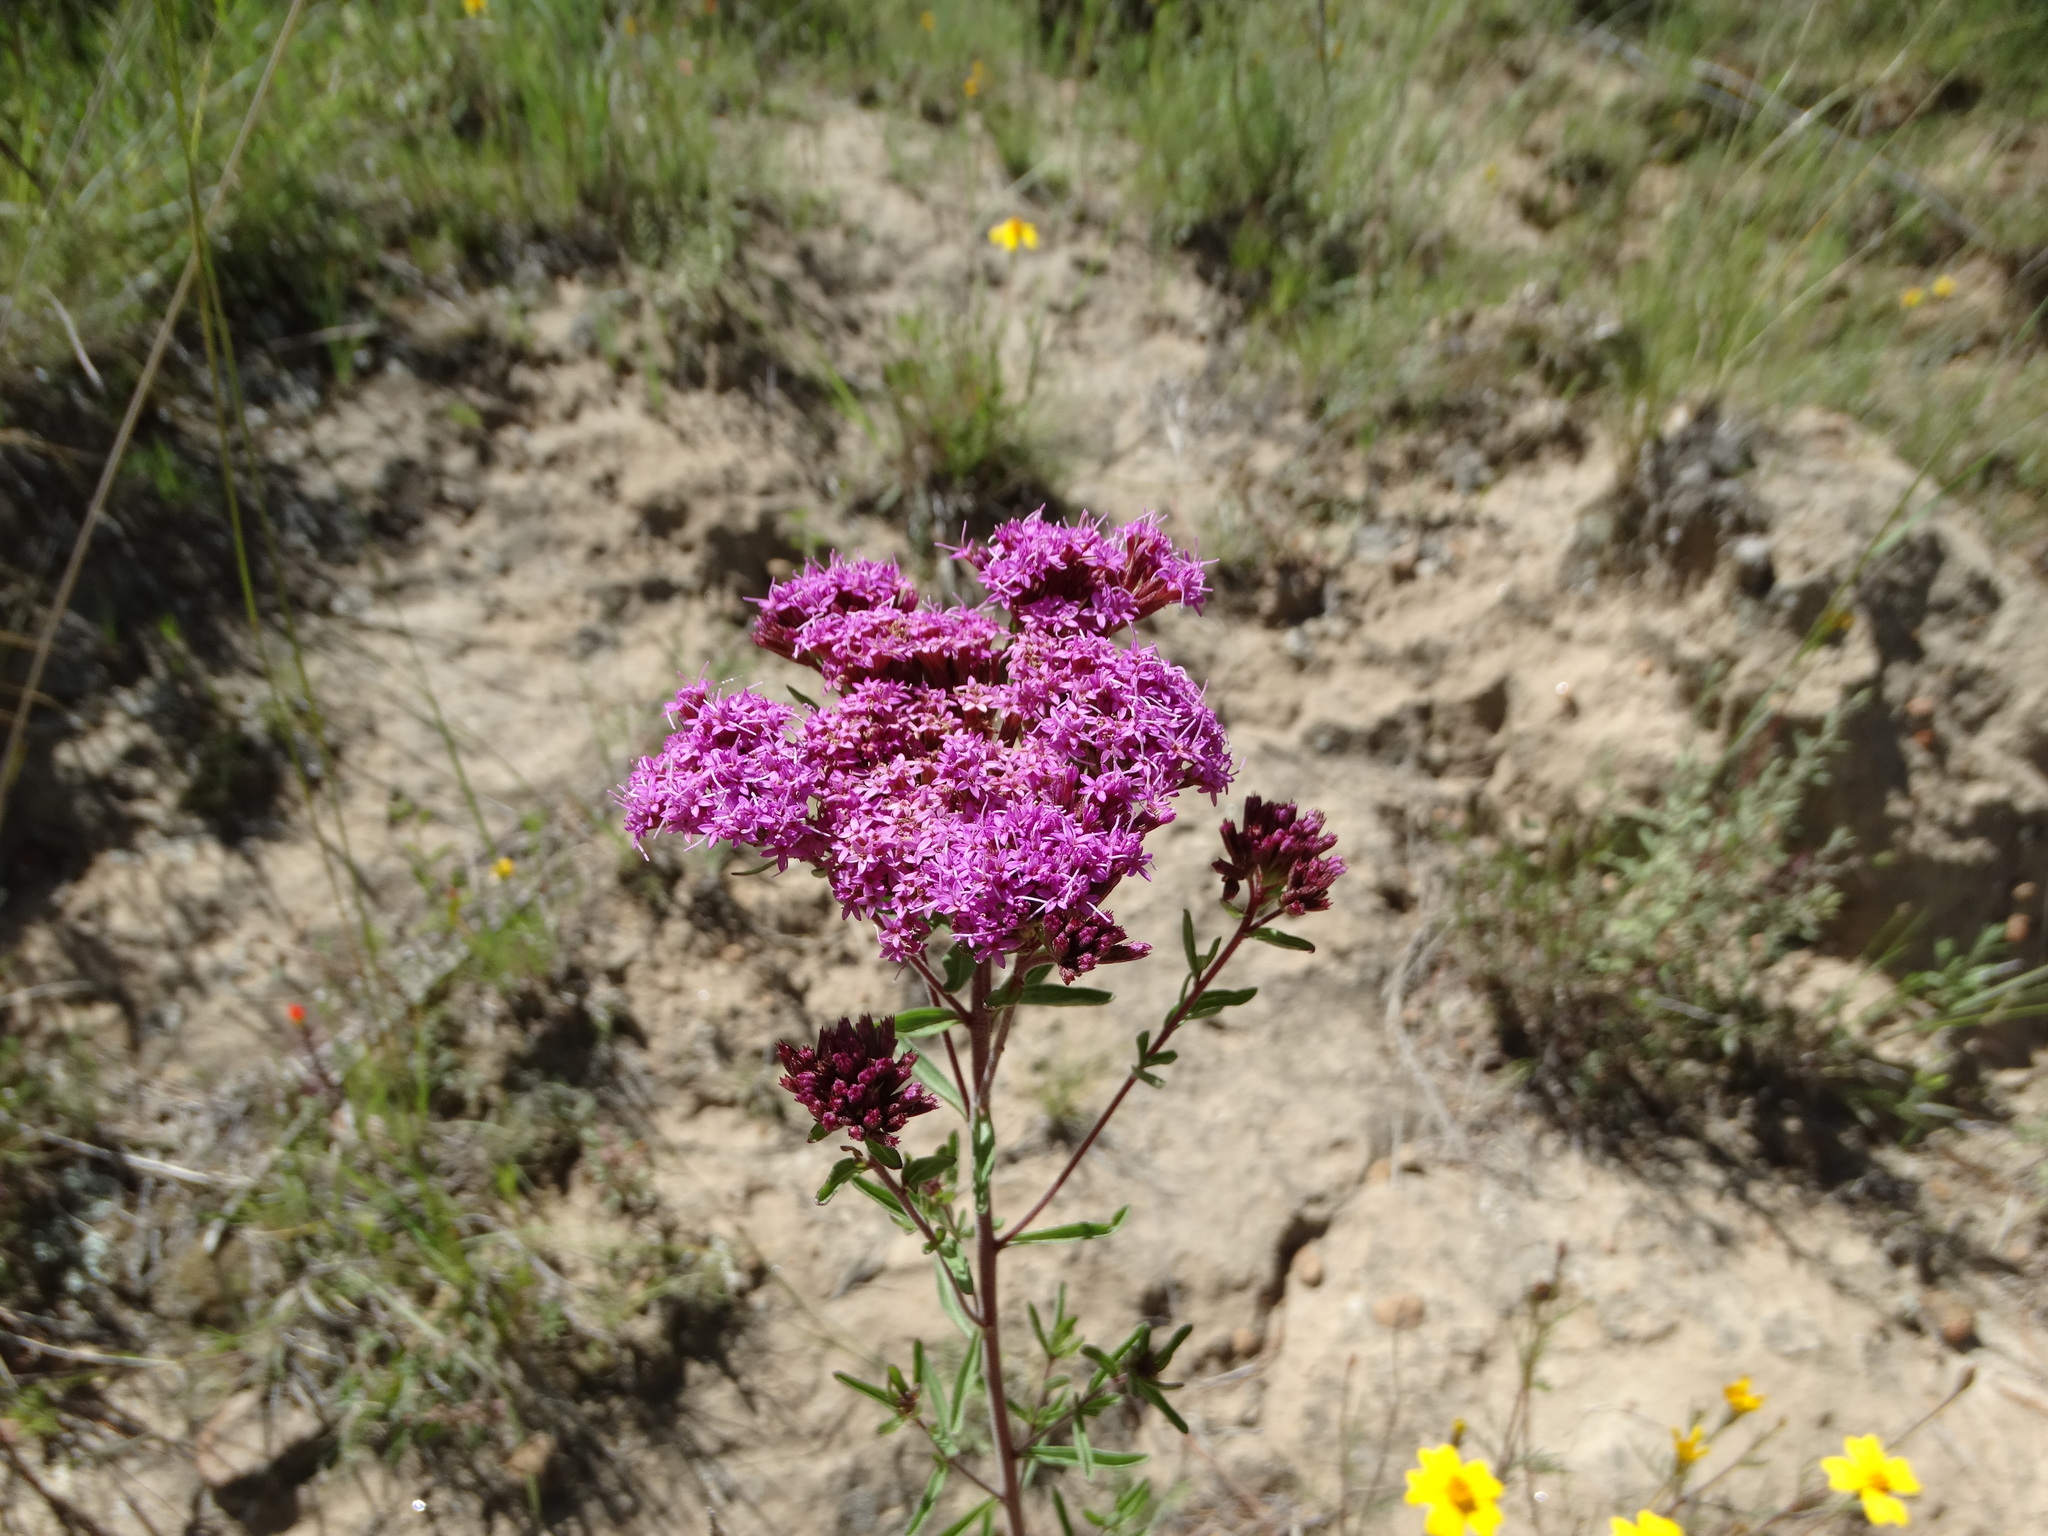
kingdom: Plantae
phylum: Tracheophyta
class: Magnoliopsida
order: Asterales
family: Asteraceae
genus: Stevia
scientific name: Stevia pilosa
